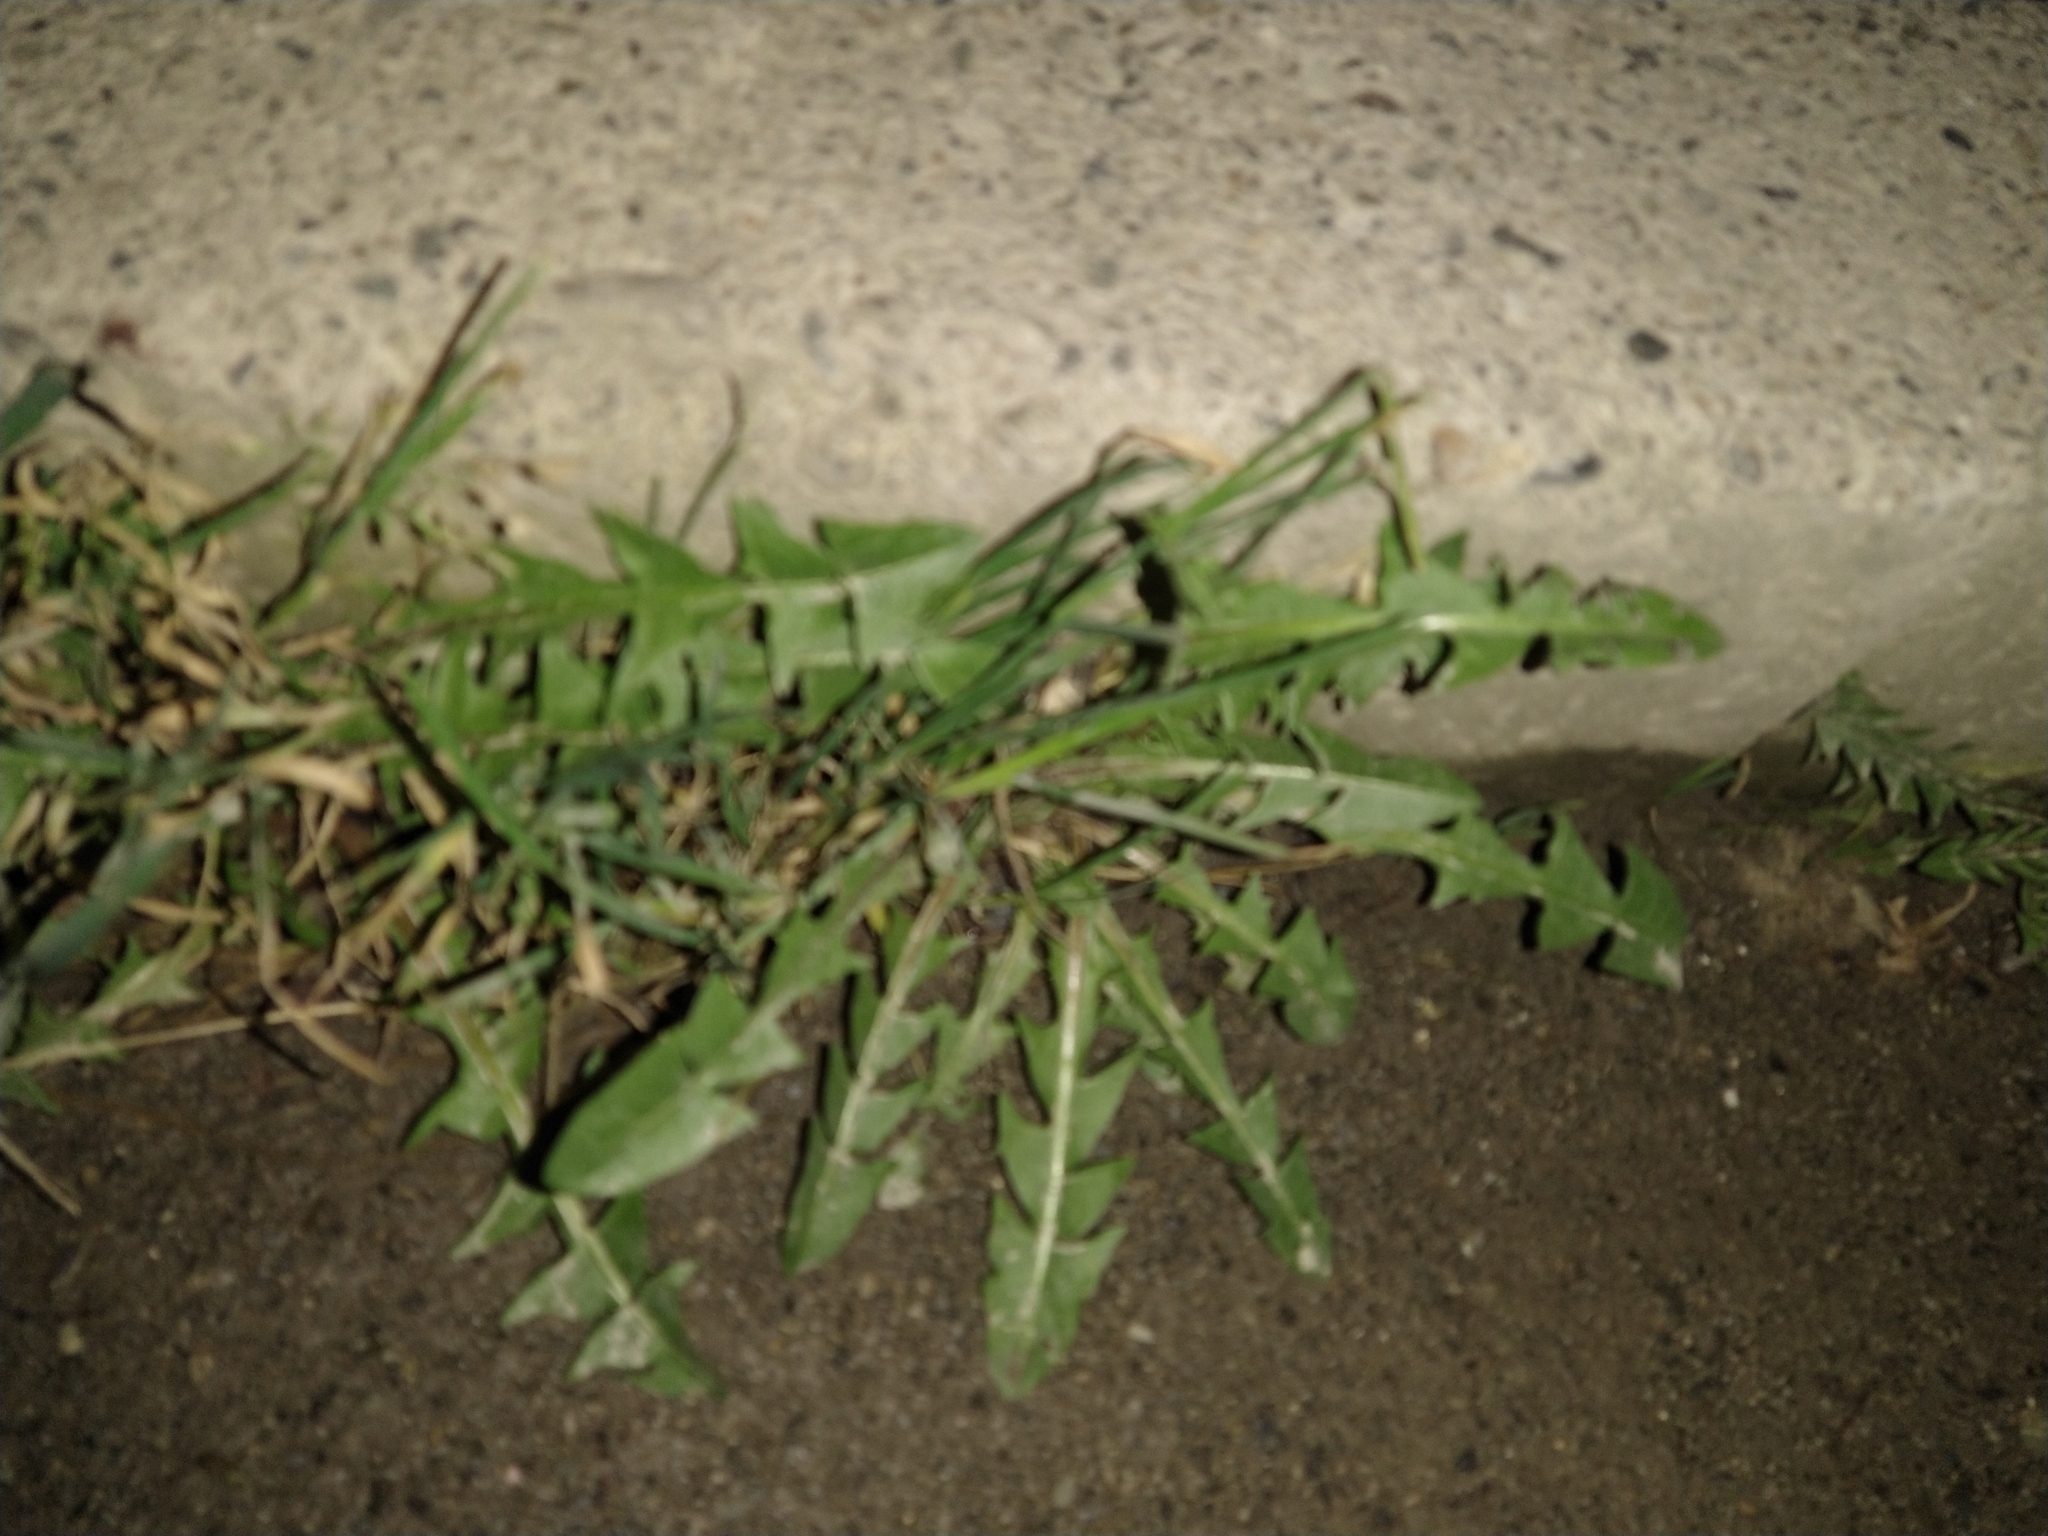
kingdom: Plantae
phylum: Tracheophyta
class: Magnoliopsida
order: Asterales
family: Asteraceae
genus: Taraxacum
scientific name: Taraxacum officinale
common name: Common dandelion
